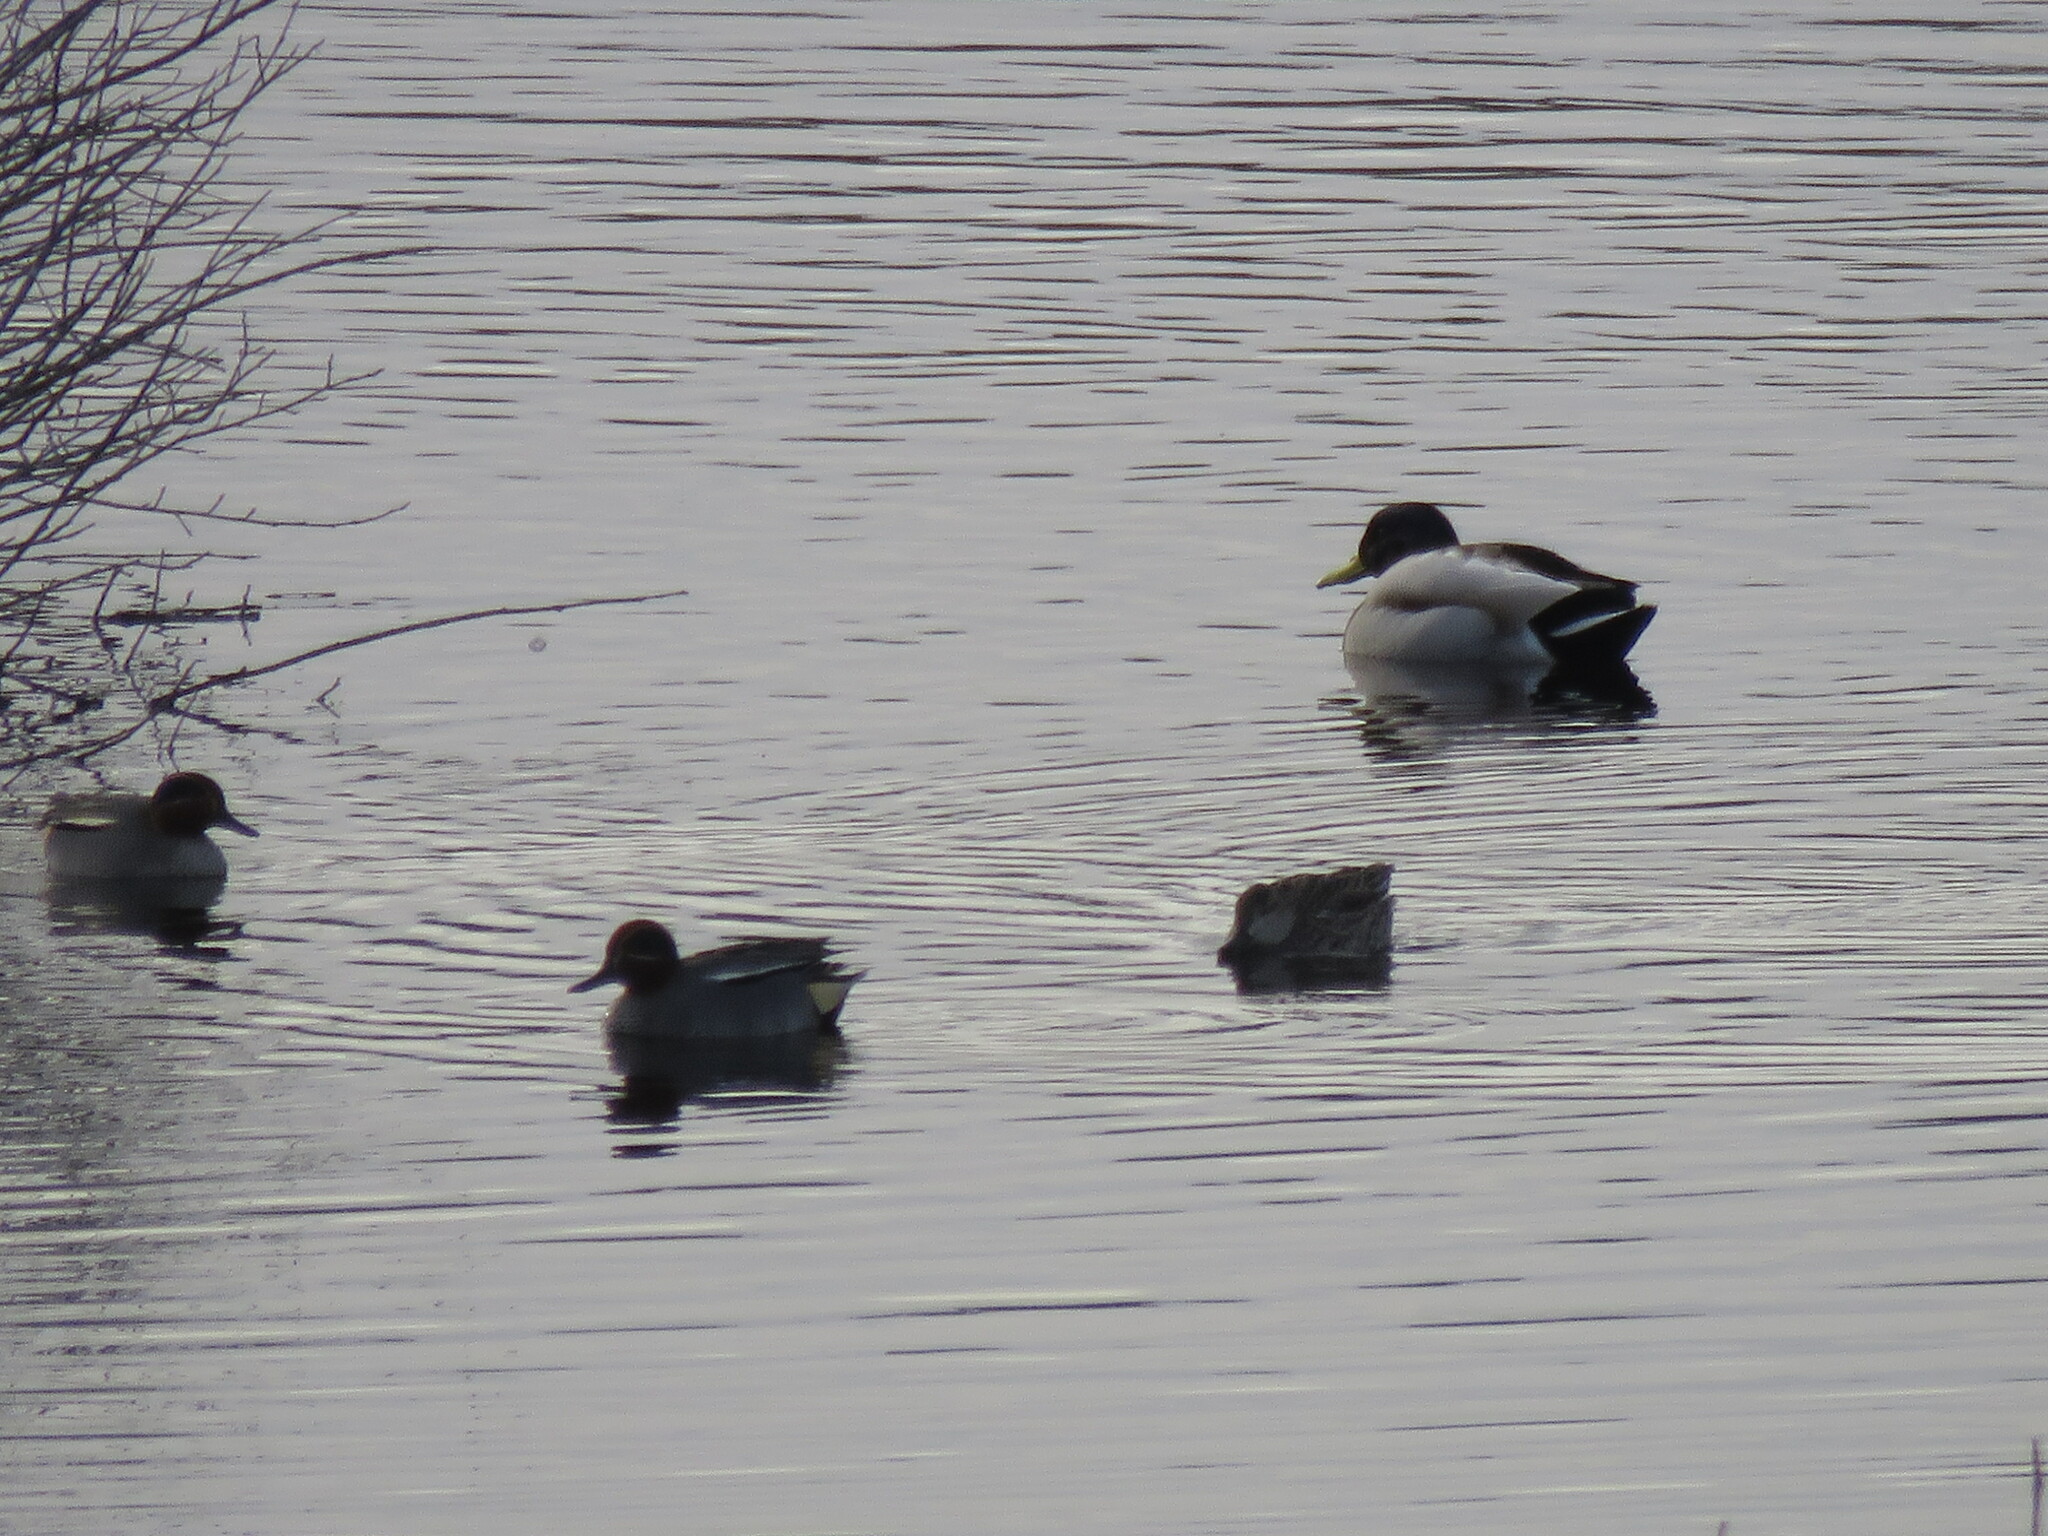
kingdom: Animalia
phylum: Chordata
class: Aves
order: Anseriformes
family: Anatidae
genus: Anas
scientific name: Anas crecca
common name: Eurasian teal
